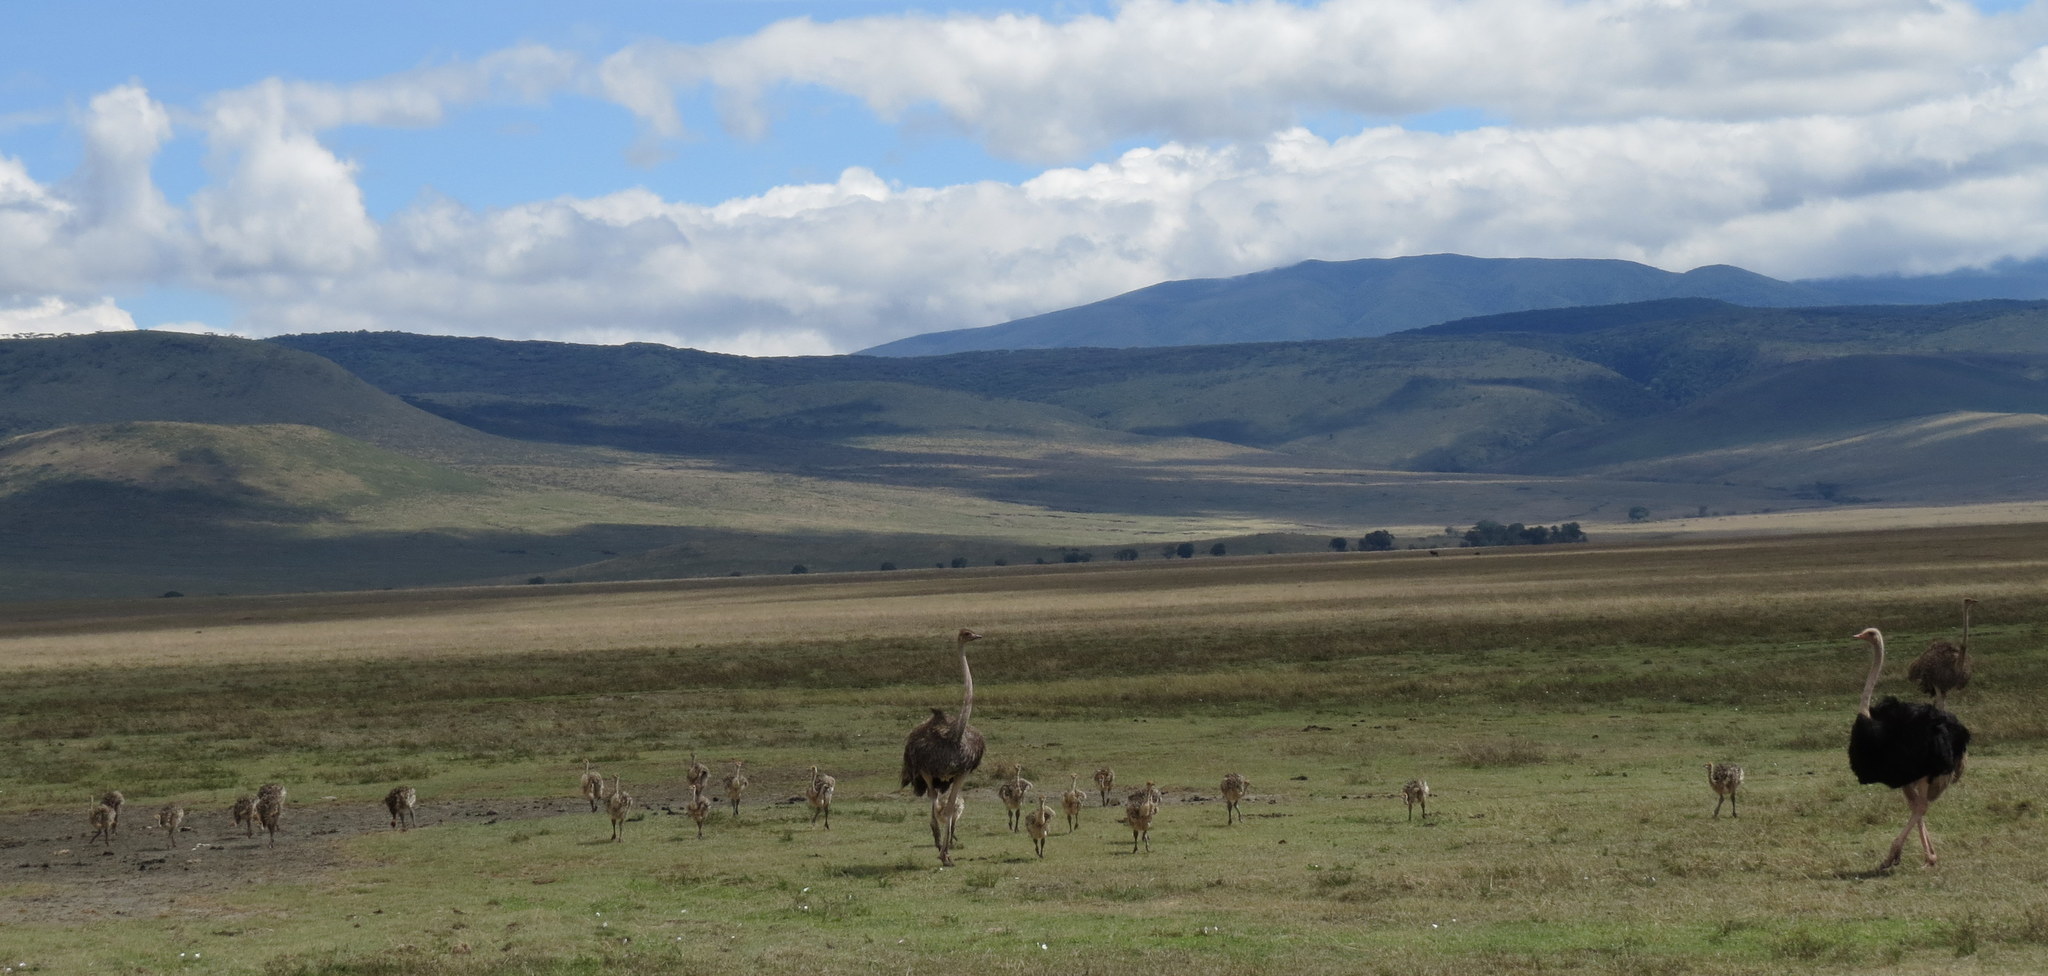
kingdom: Animalia
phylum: Chordata
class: Aves
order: Struthioniformes
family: Struthionidae
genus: Struthio
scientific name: Struthio camelus
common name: Common ostrich
